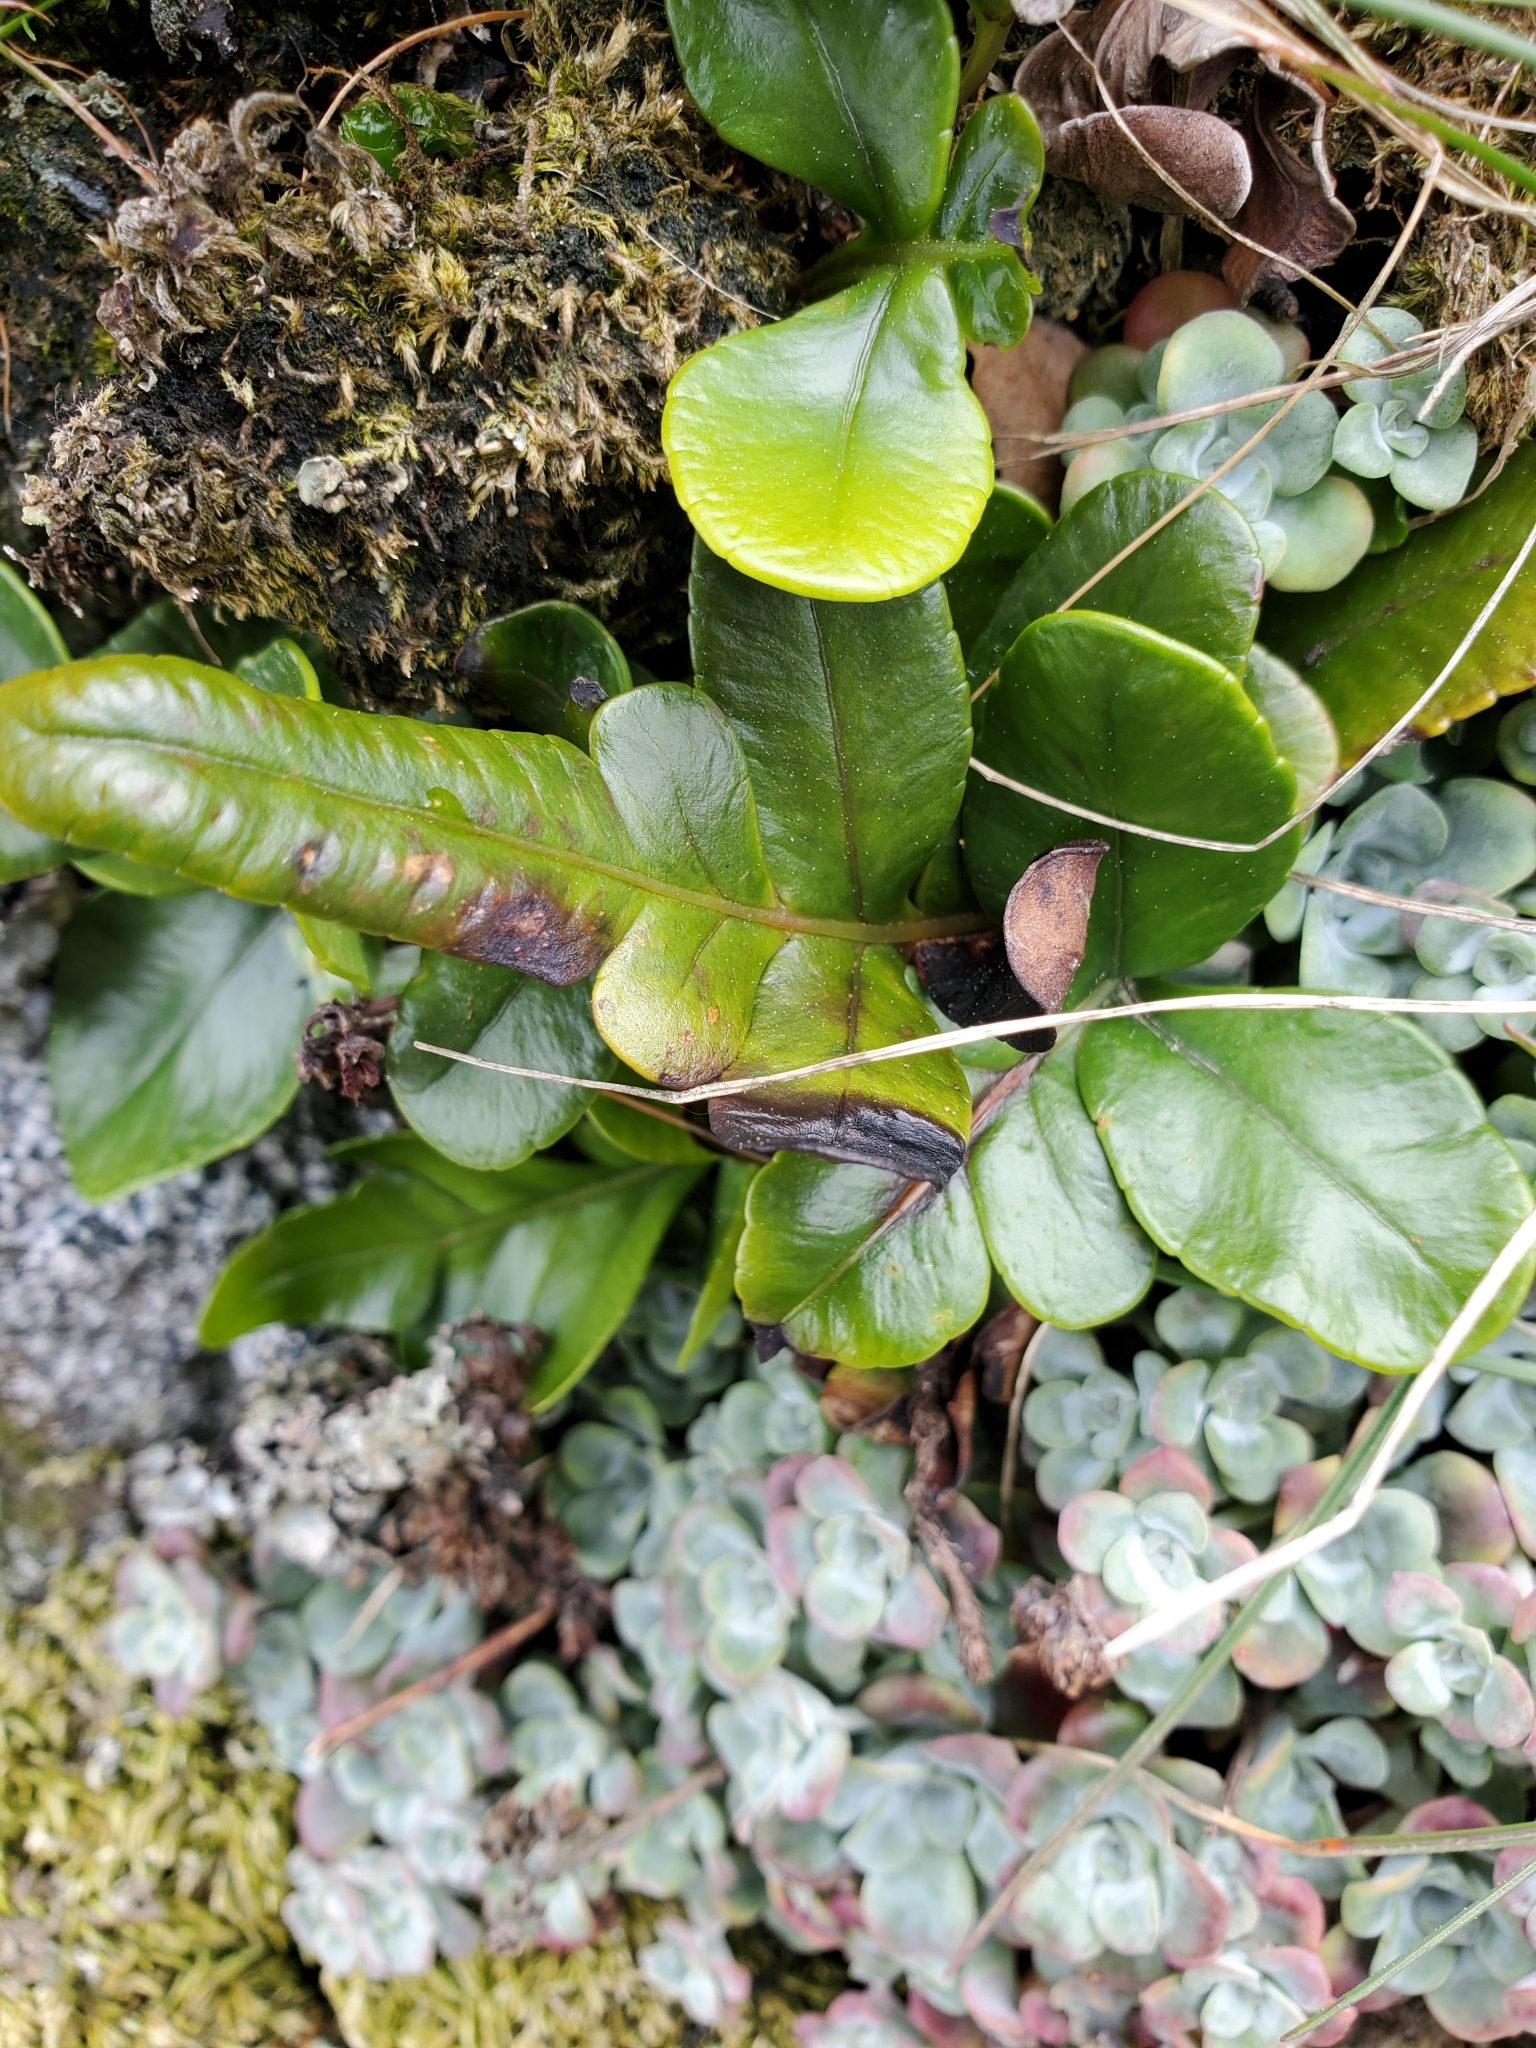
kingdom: Plantae
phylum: Tracheophyta
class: Polypodiopsida
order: Polypodiales
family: Polypodiaceae
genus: Polypodium
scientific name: Polypodium scouleri
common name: Scouler's polypody
